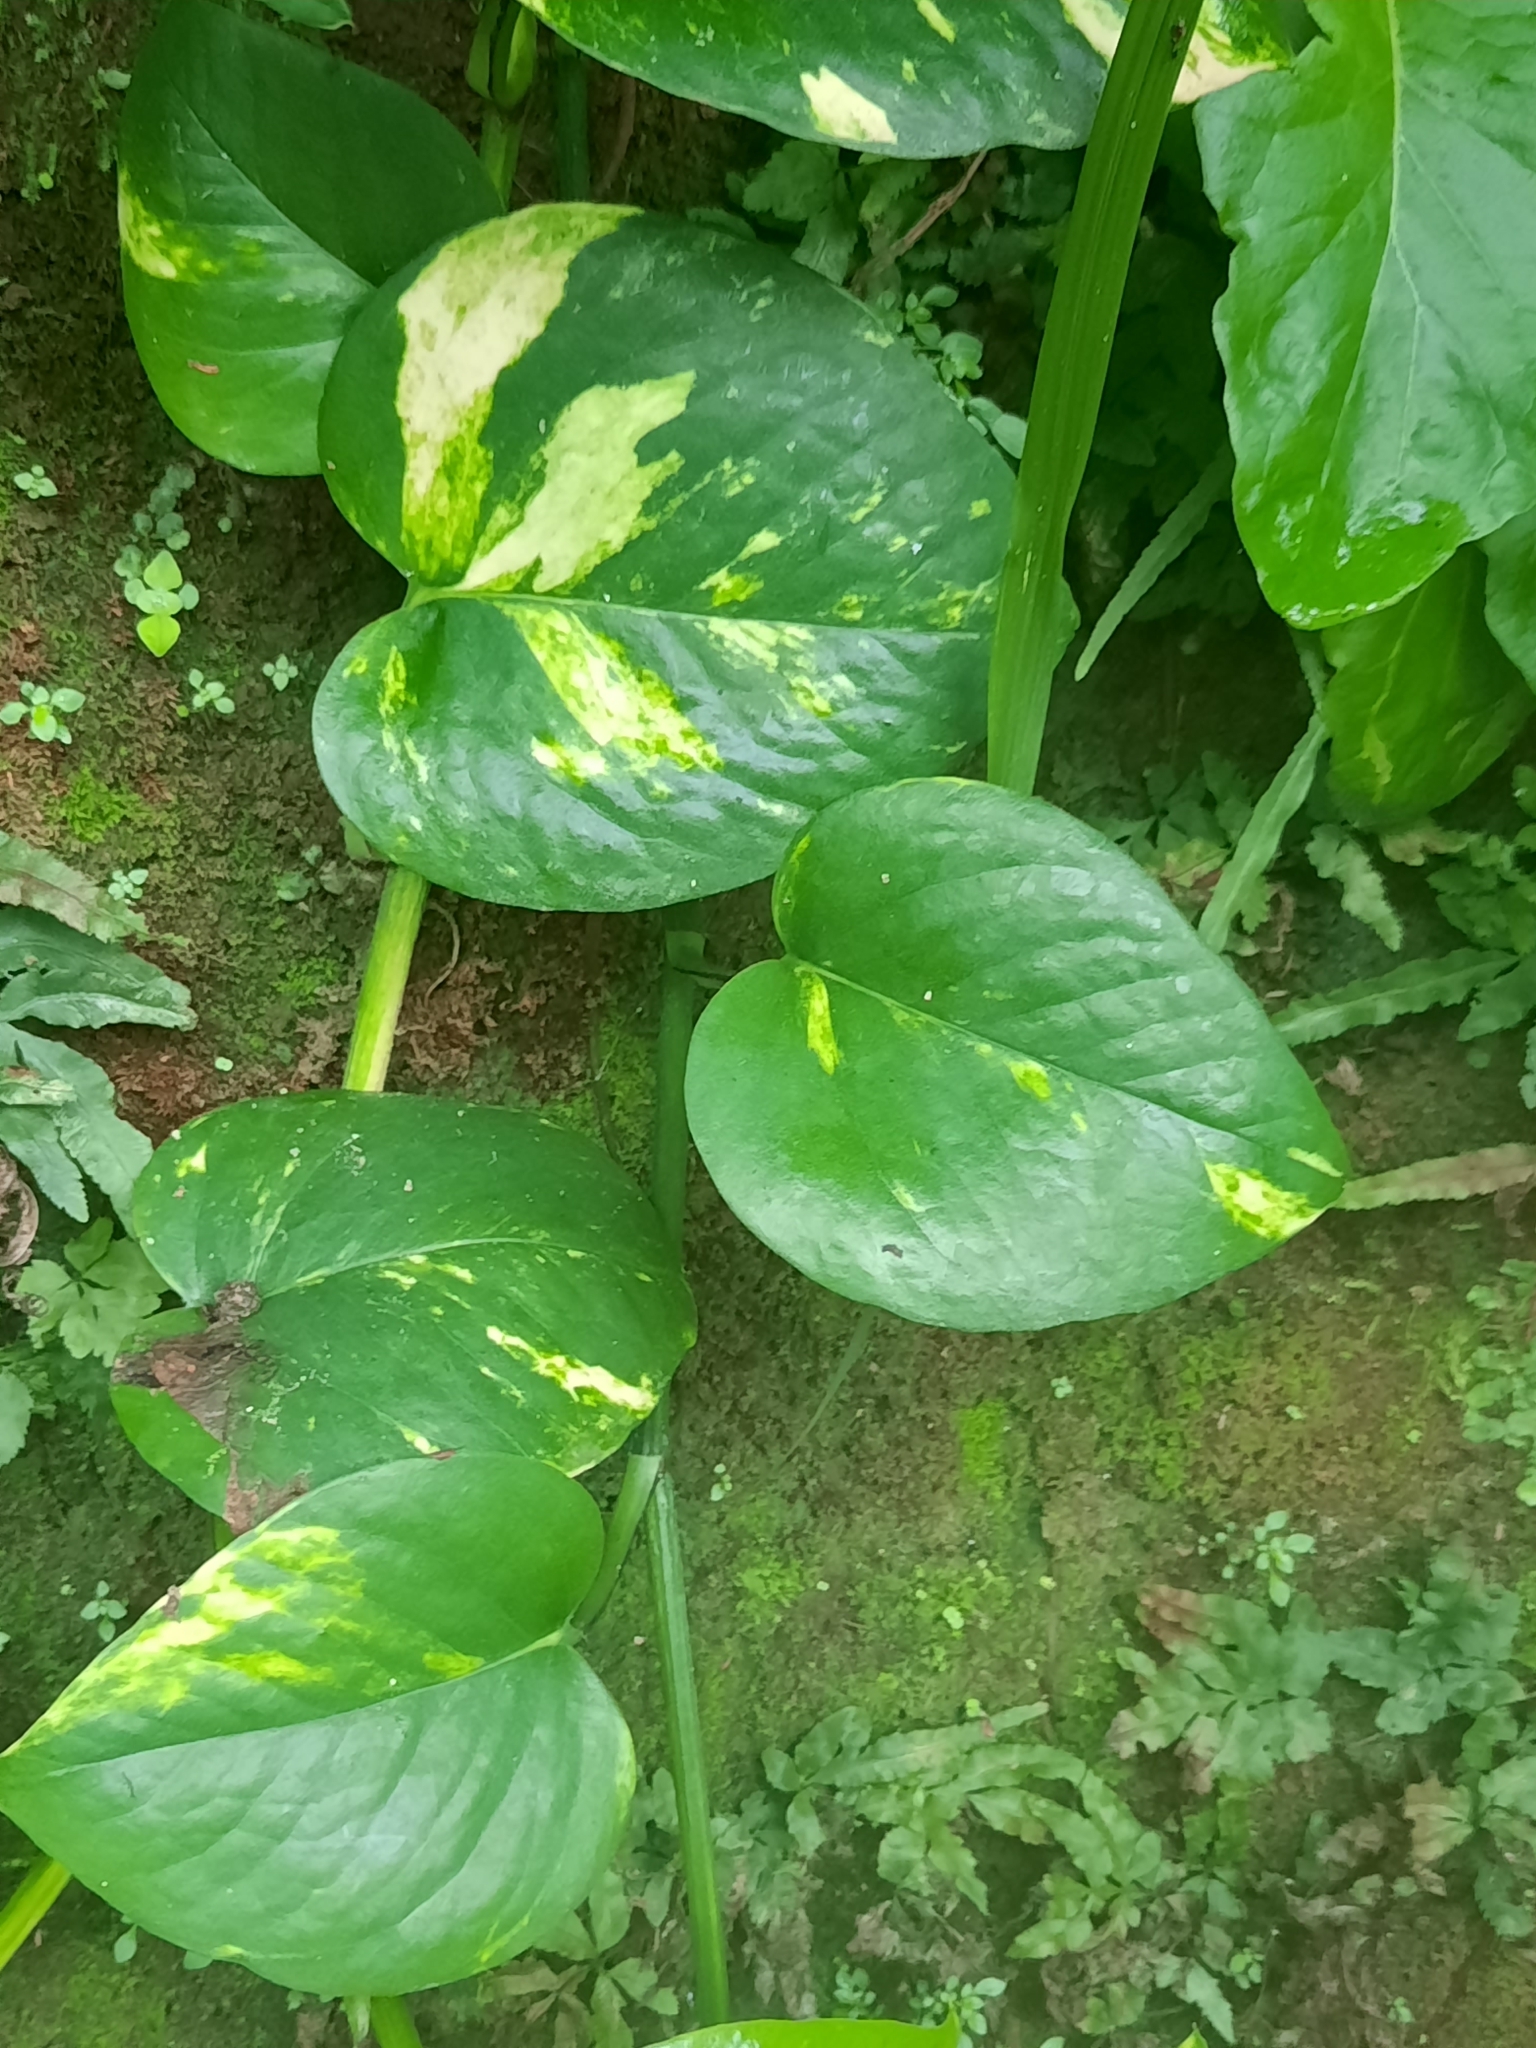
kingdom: Plantae
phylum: Tracheophyta
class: Liliopsida
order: Alismatales
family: Araceae
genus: Epipremnum
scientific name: Epipremnum aureum
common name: Golden hunter's-robe
